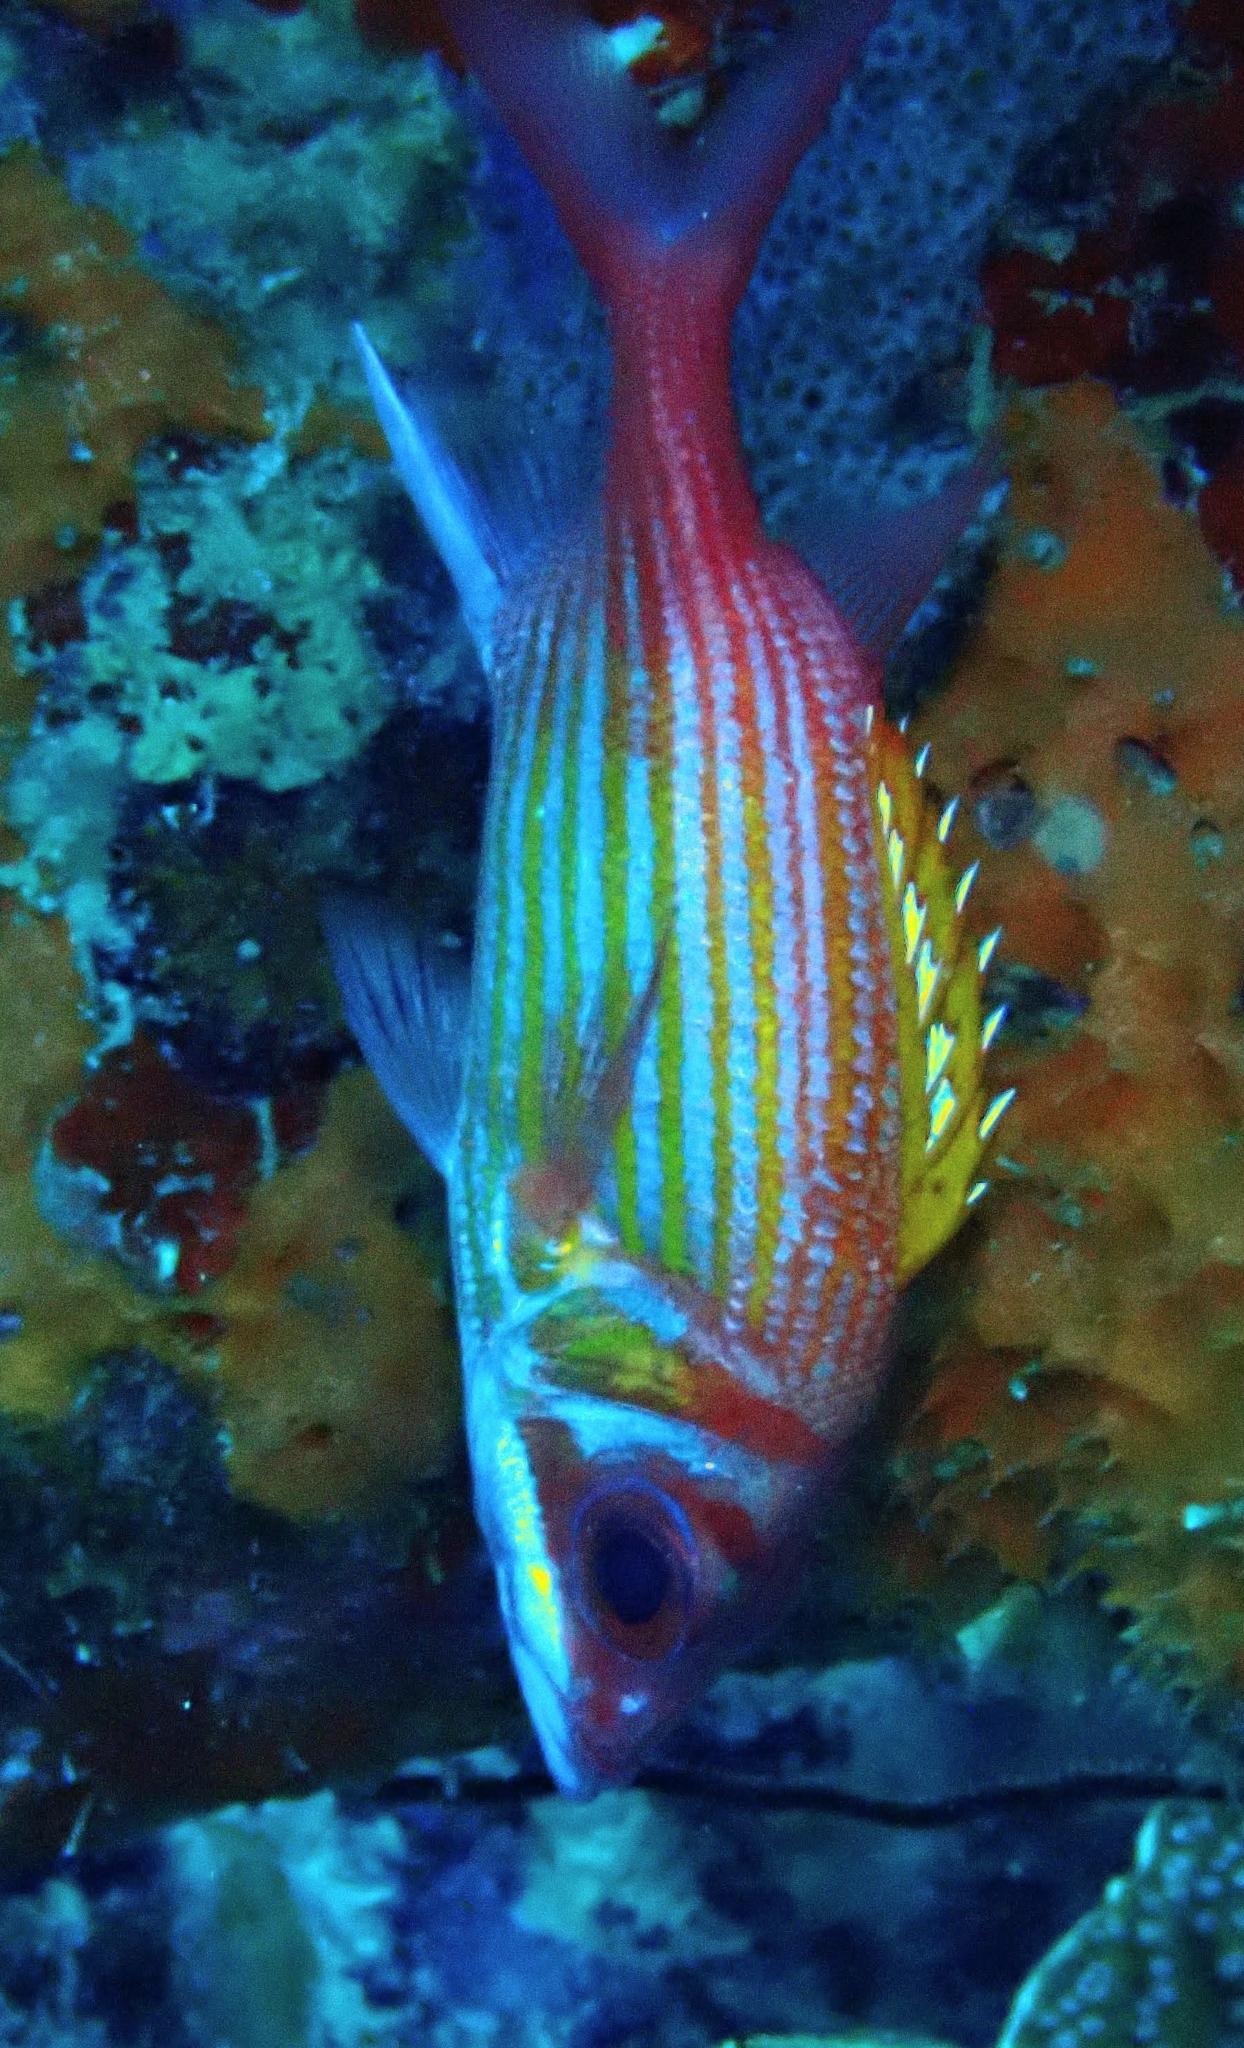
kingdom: Animalia
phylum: Chordata
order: Beryciformes
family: Holocentridae
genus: Neoniphon
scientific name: Neoniphon marianus
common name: Longjaw squirrelfish
